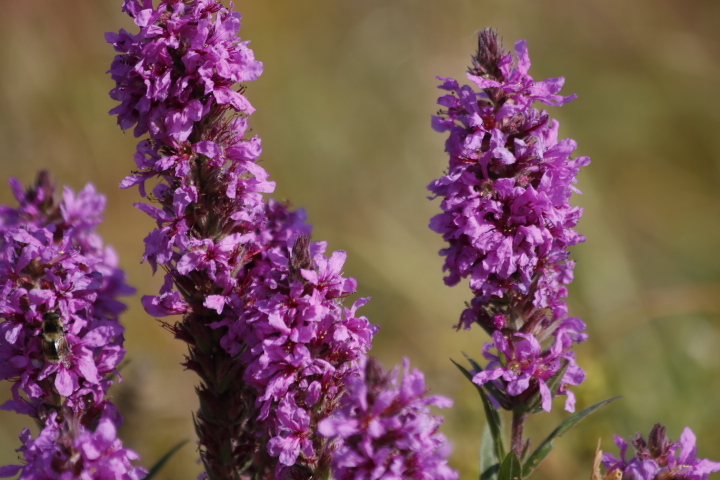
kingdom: Plantae
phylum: Tracheophyta
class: Magnoliopsida
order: Myrtales
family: Lythraceae
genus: Lythrum
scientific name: Lythrum salicaria
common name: Purple loosestrife
